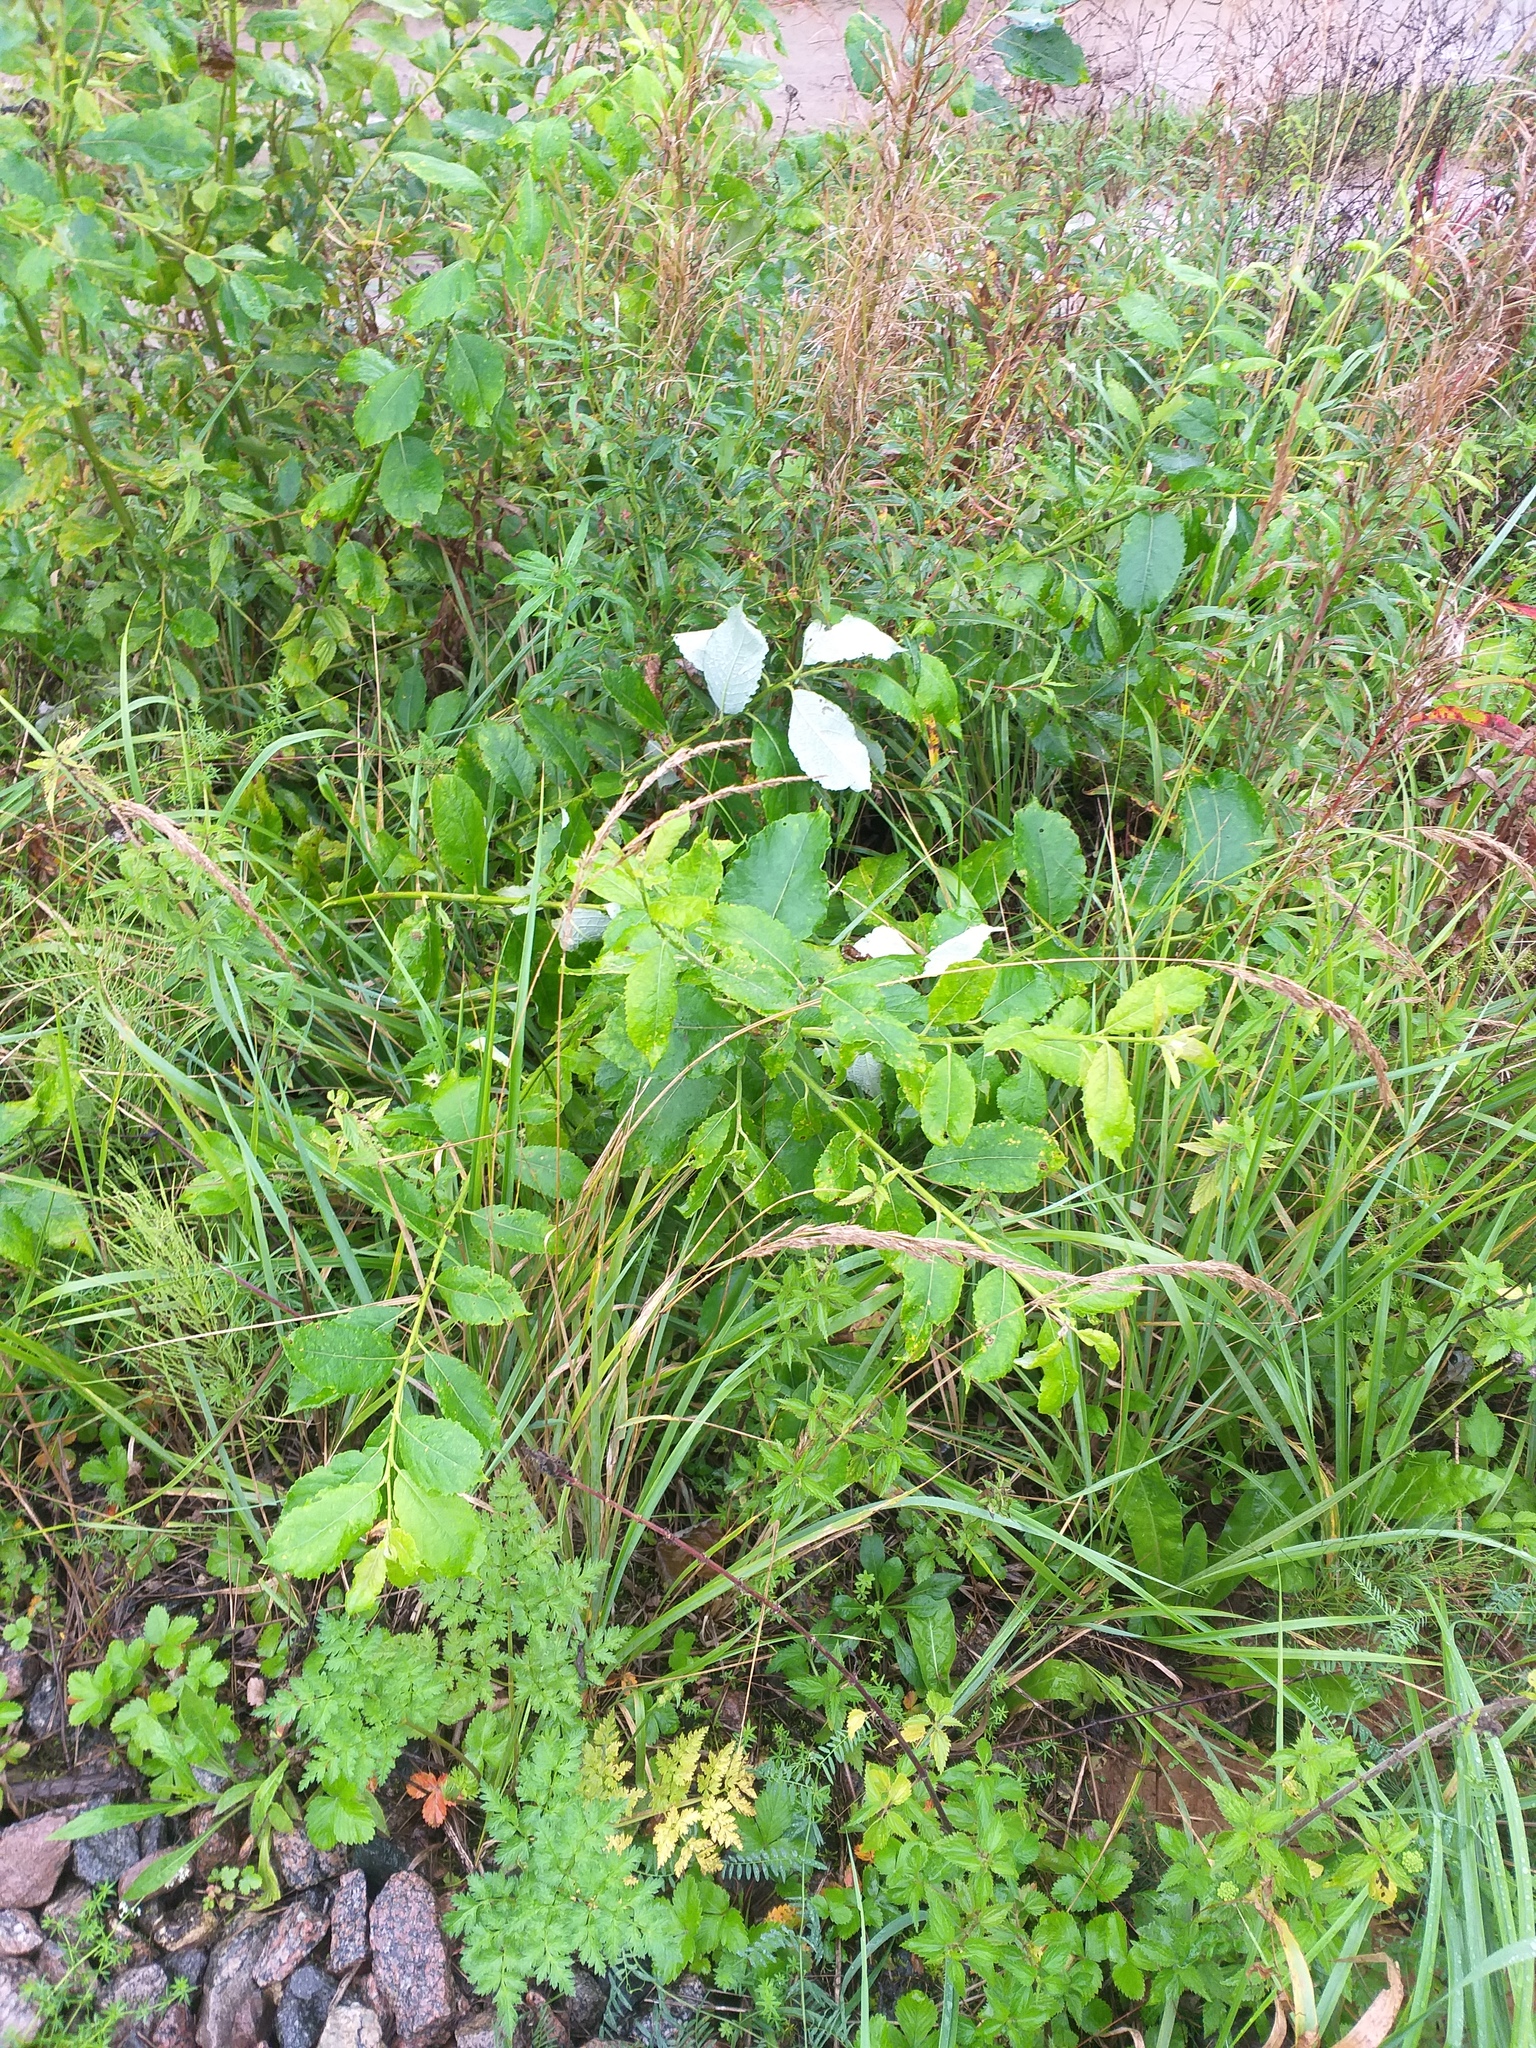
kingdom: Plantae
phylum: Tracheophyta
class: Magnoliopsida
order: Malpighiales
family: Salicaceae
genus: Salix
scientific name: Salix caprea
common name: Goat willow
